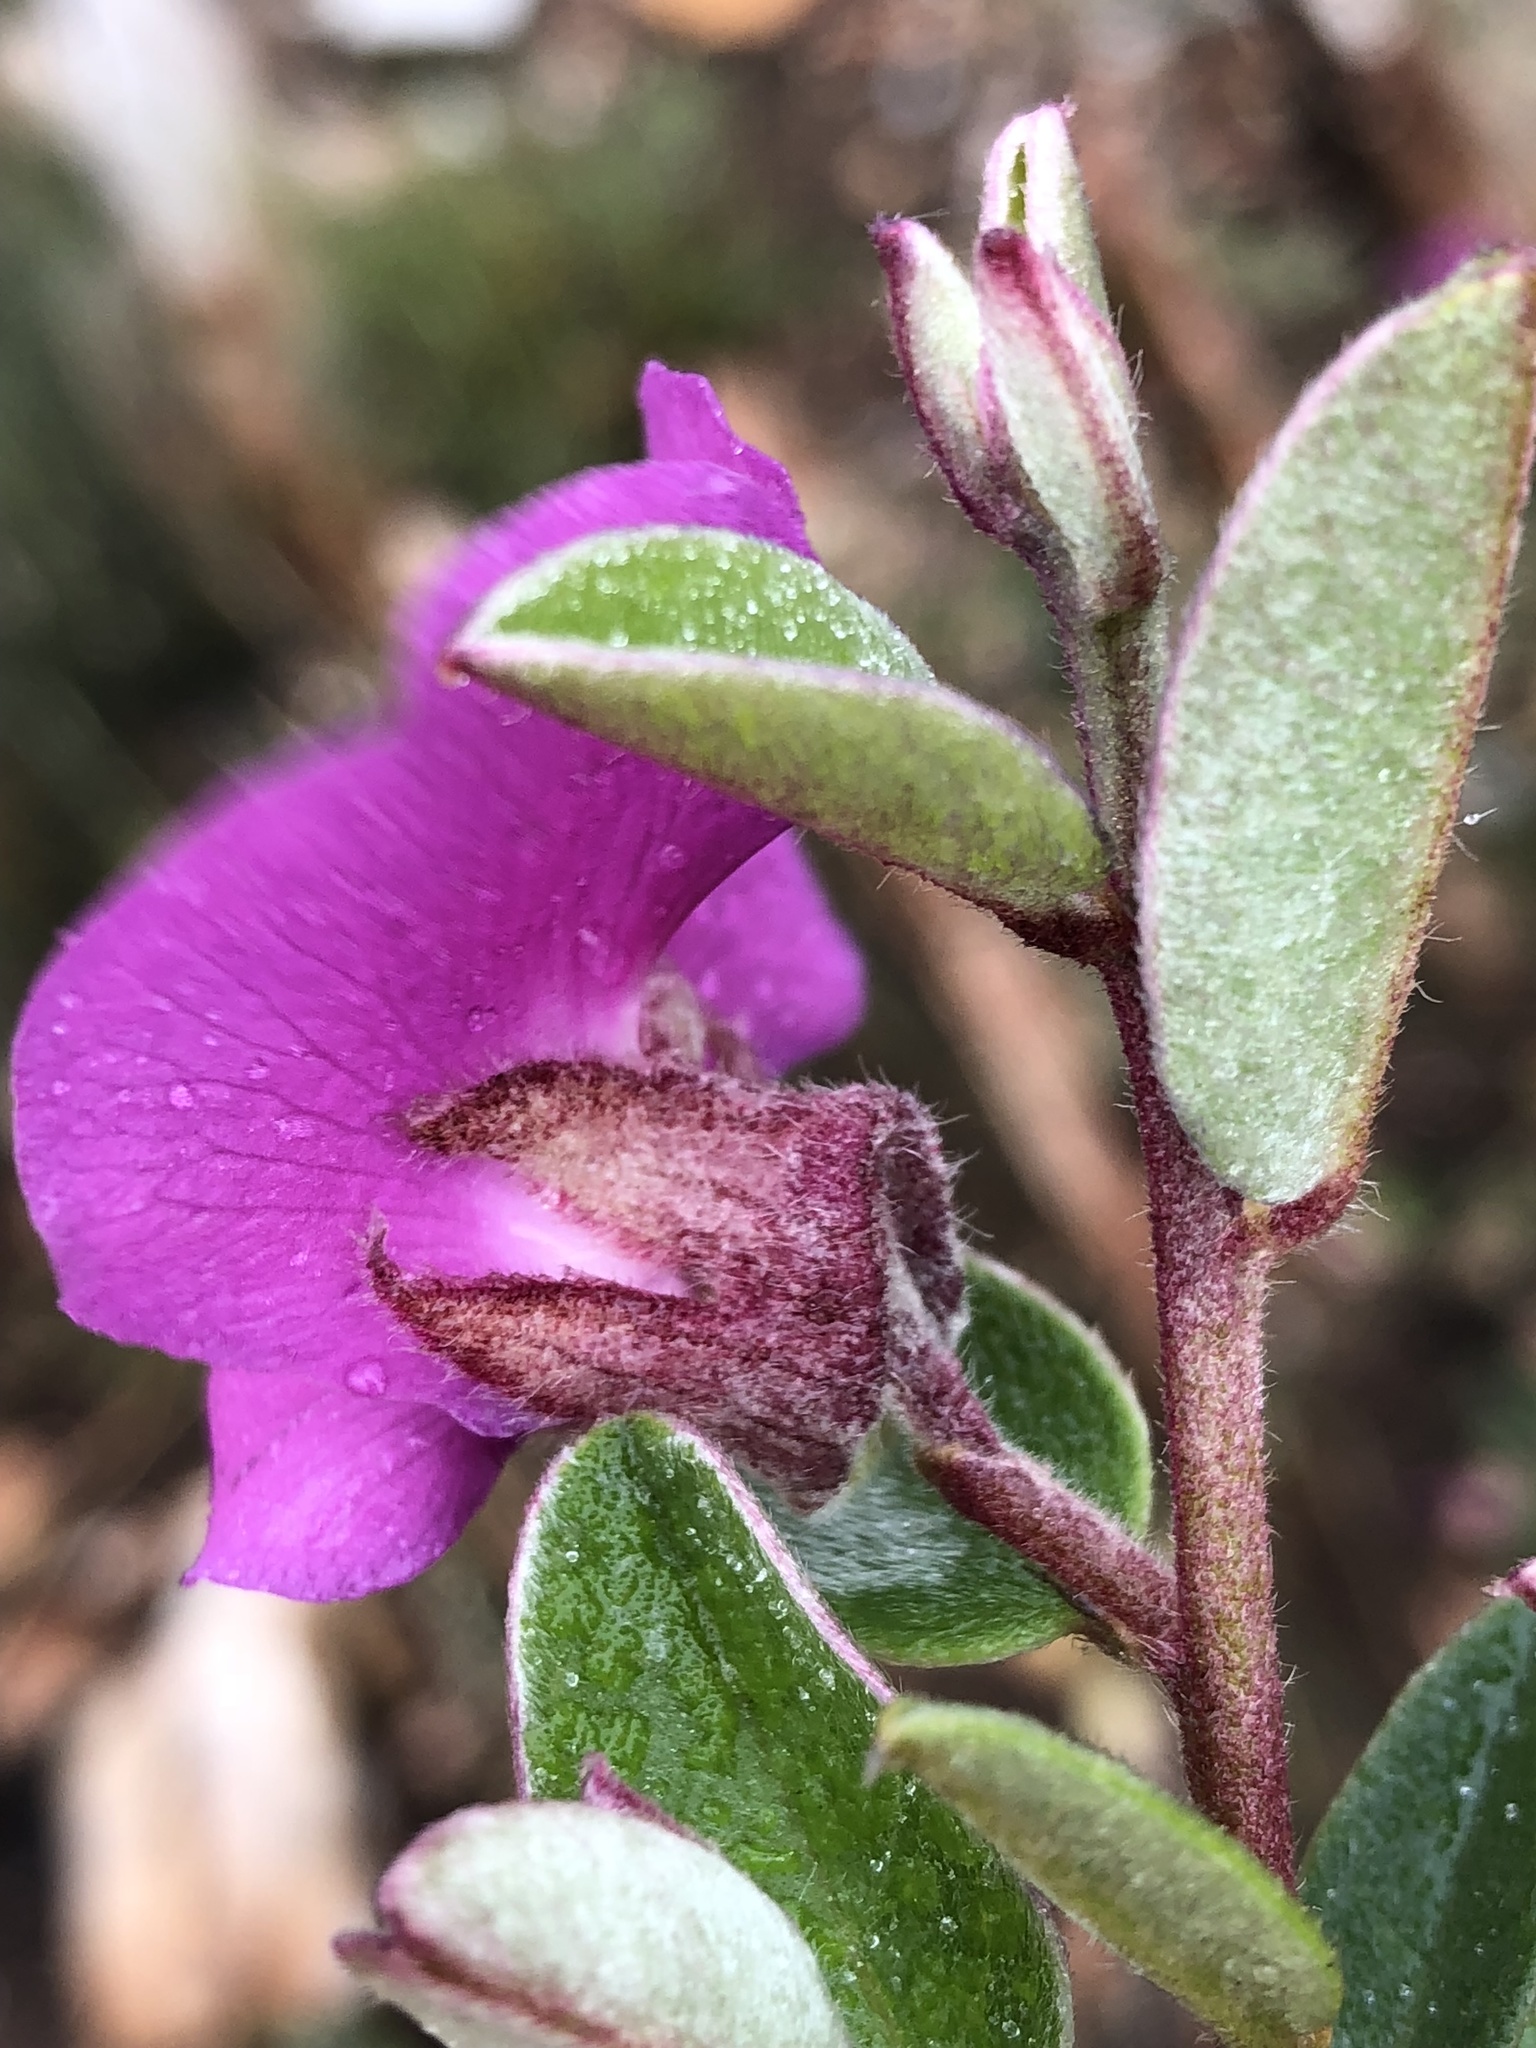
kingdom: Plantae
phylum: Tracheophyta
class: Magnoliopsida
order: Fabales
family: Fabaceae
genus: Podalyria
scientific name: Podalyria burchellii
